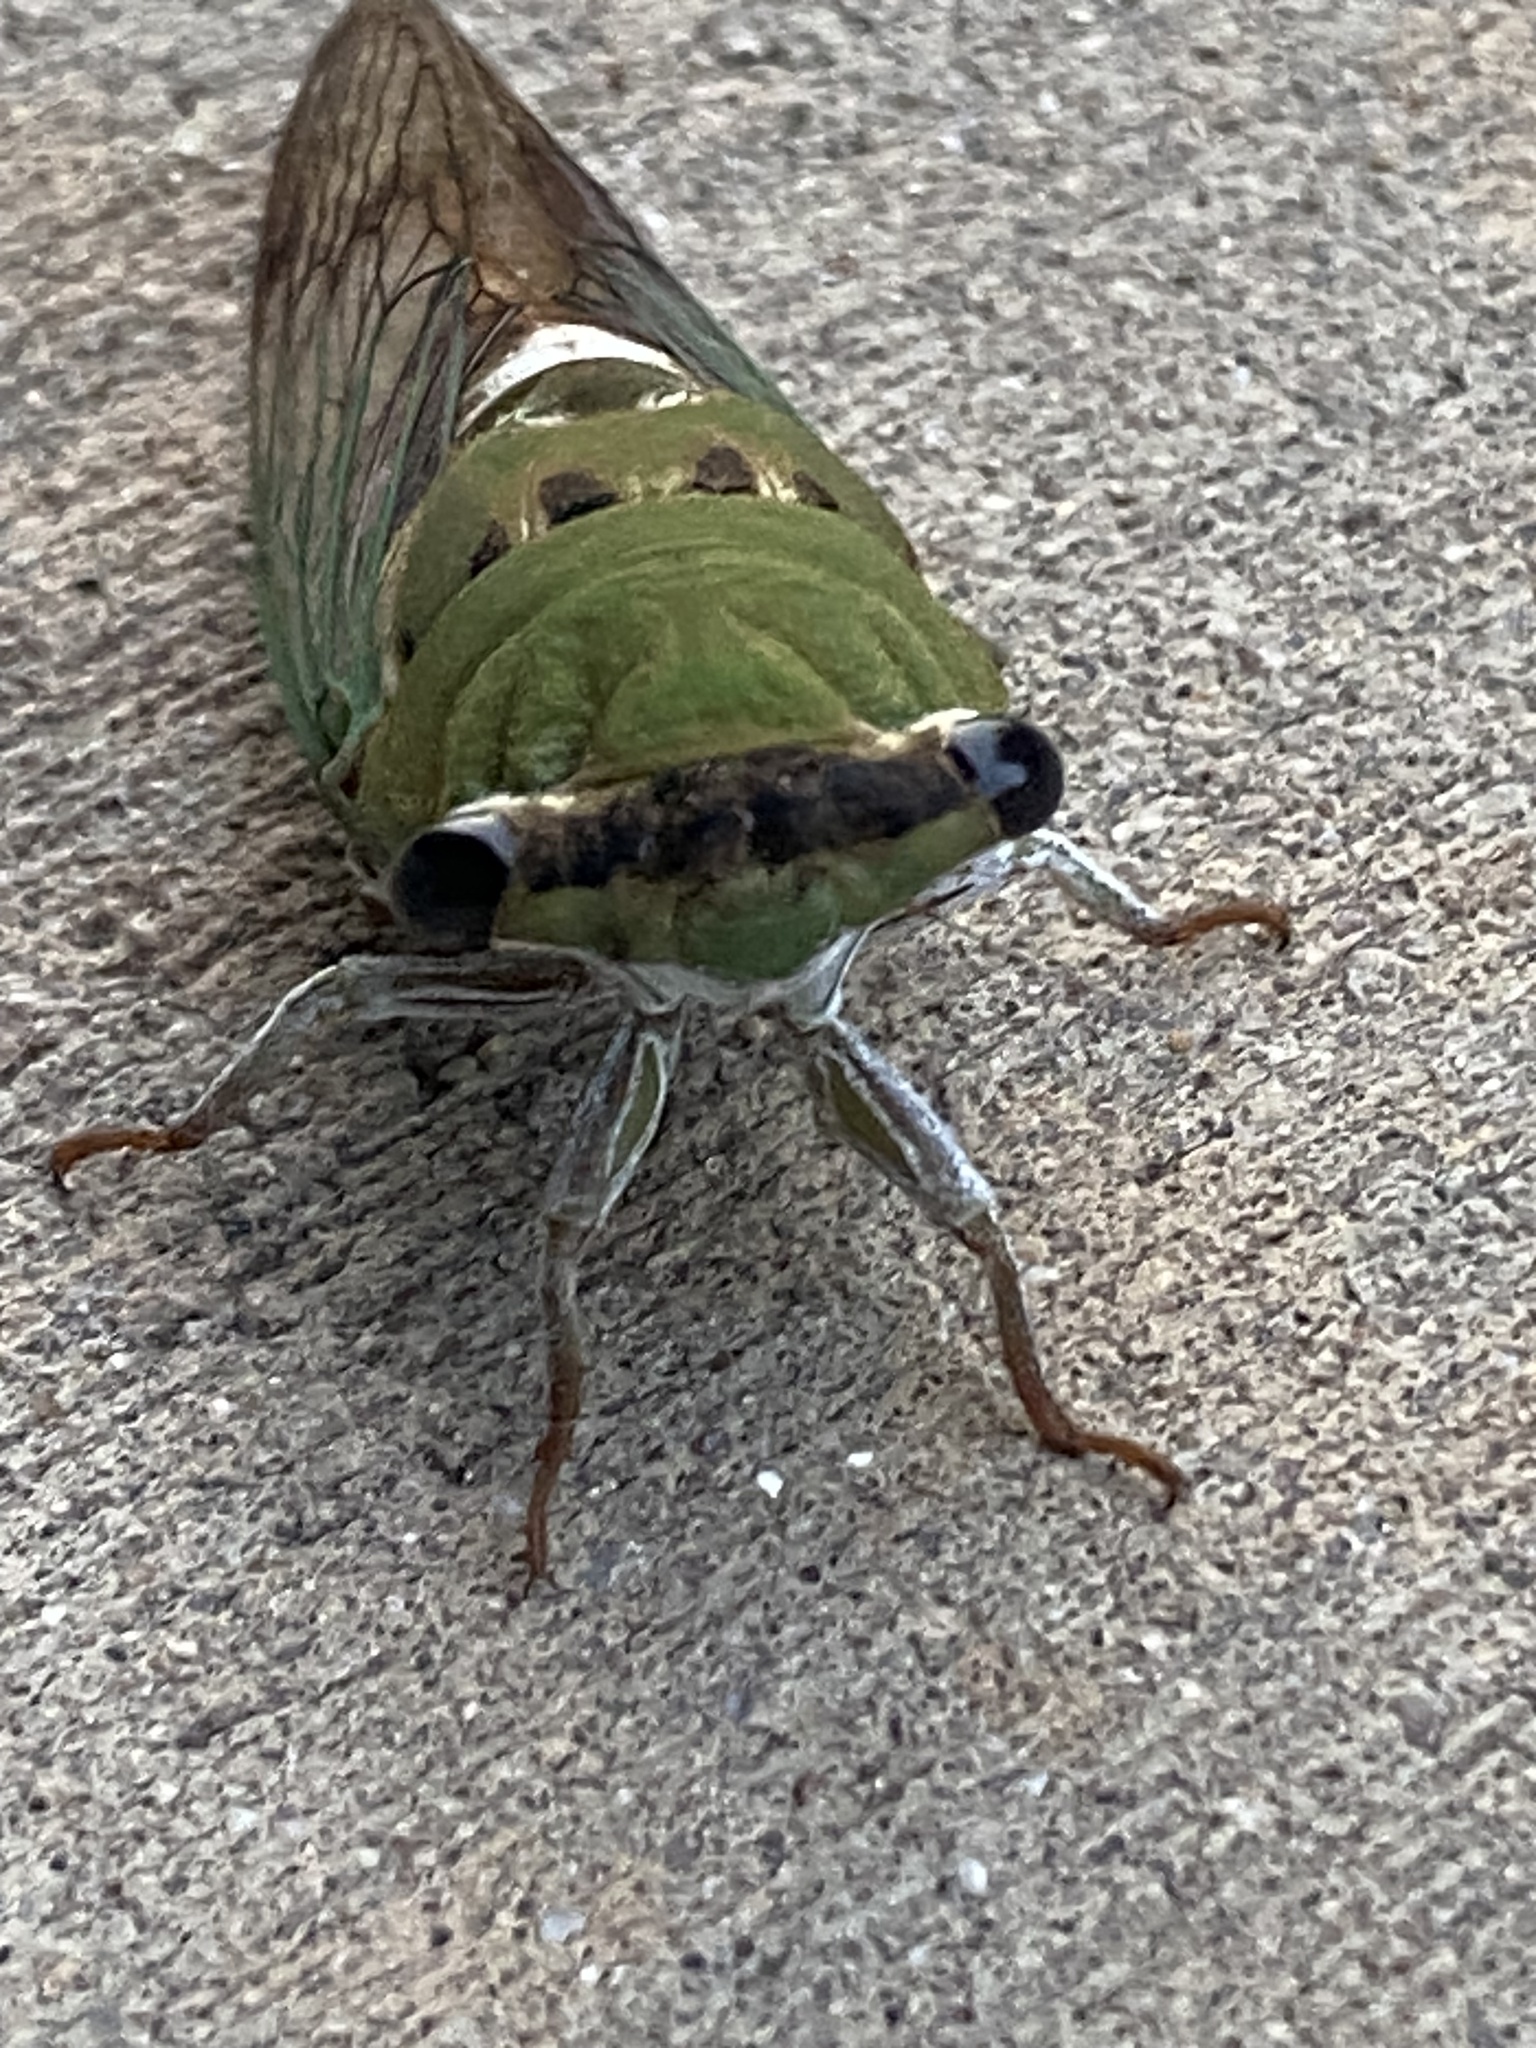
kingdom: Animalia
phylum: Arthropoda
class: Insecta
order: Hemiptera
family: Cicadidae
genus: Neotibicen
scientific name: Neotibicen superbus
